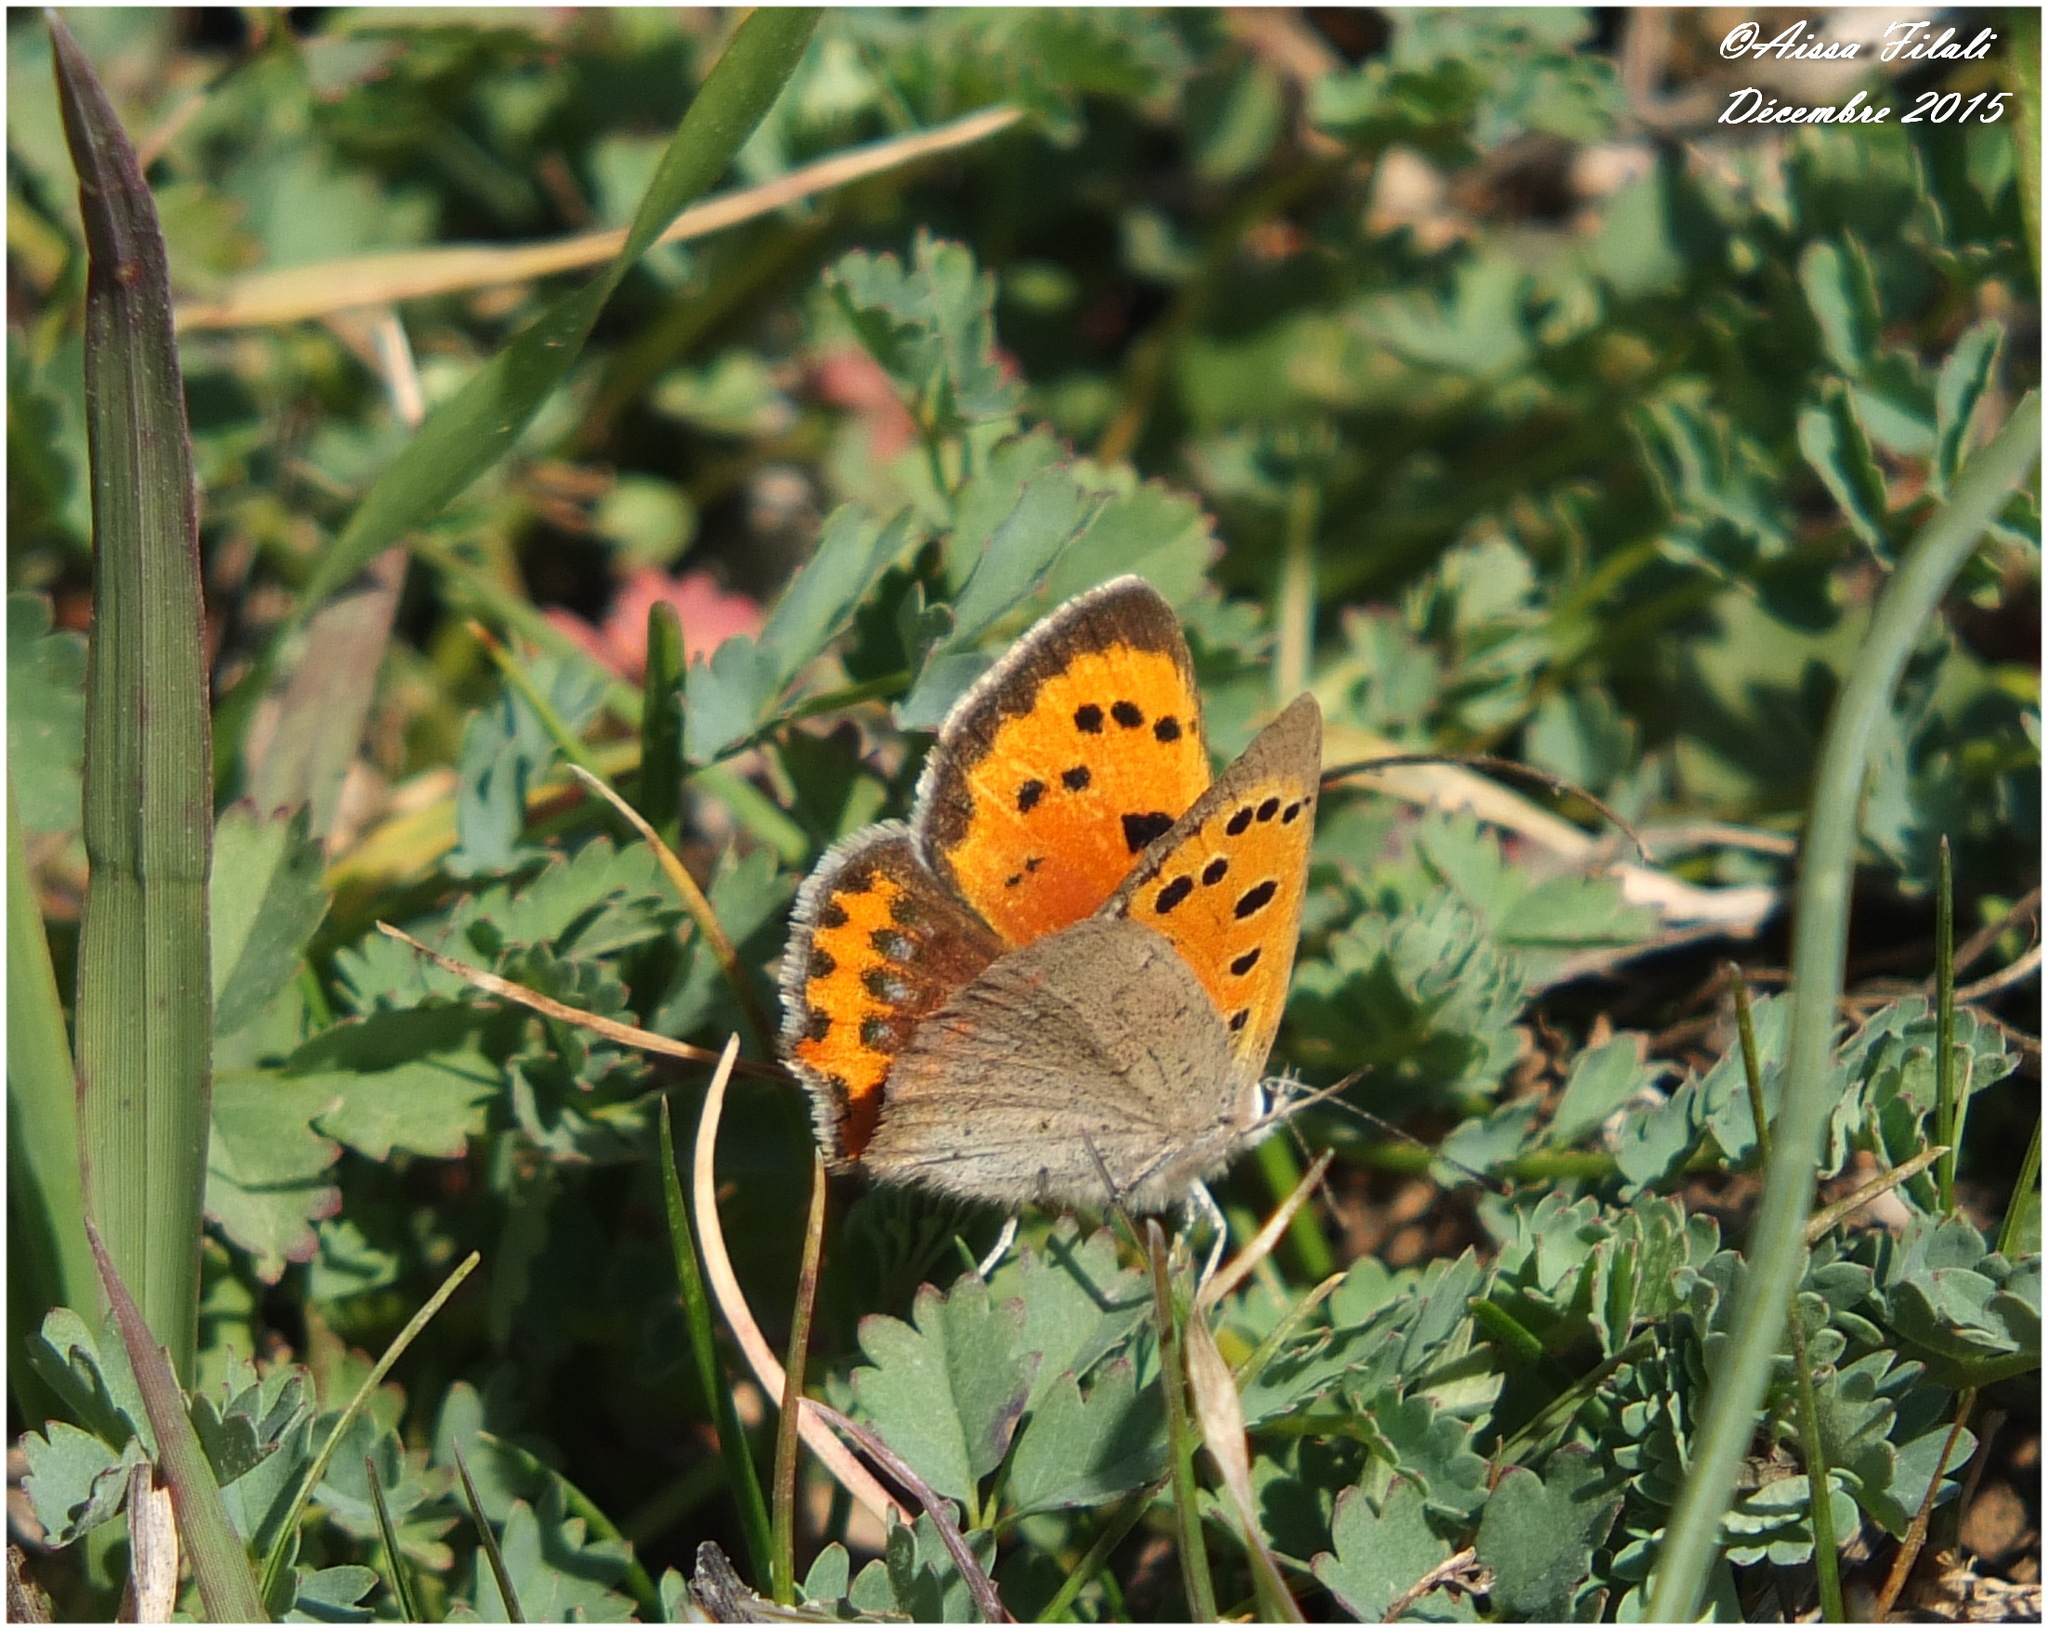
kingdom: Animalia
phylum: Arthropoda
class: Insecta
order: Lepidoptera
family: Lycaenidae
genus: Lycaena
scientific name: Lycaena phlaeas
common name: Small copper
